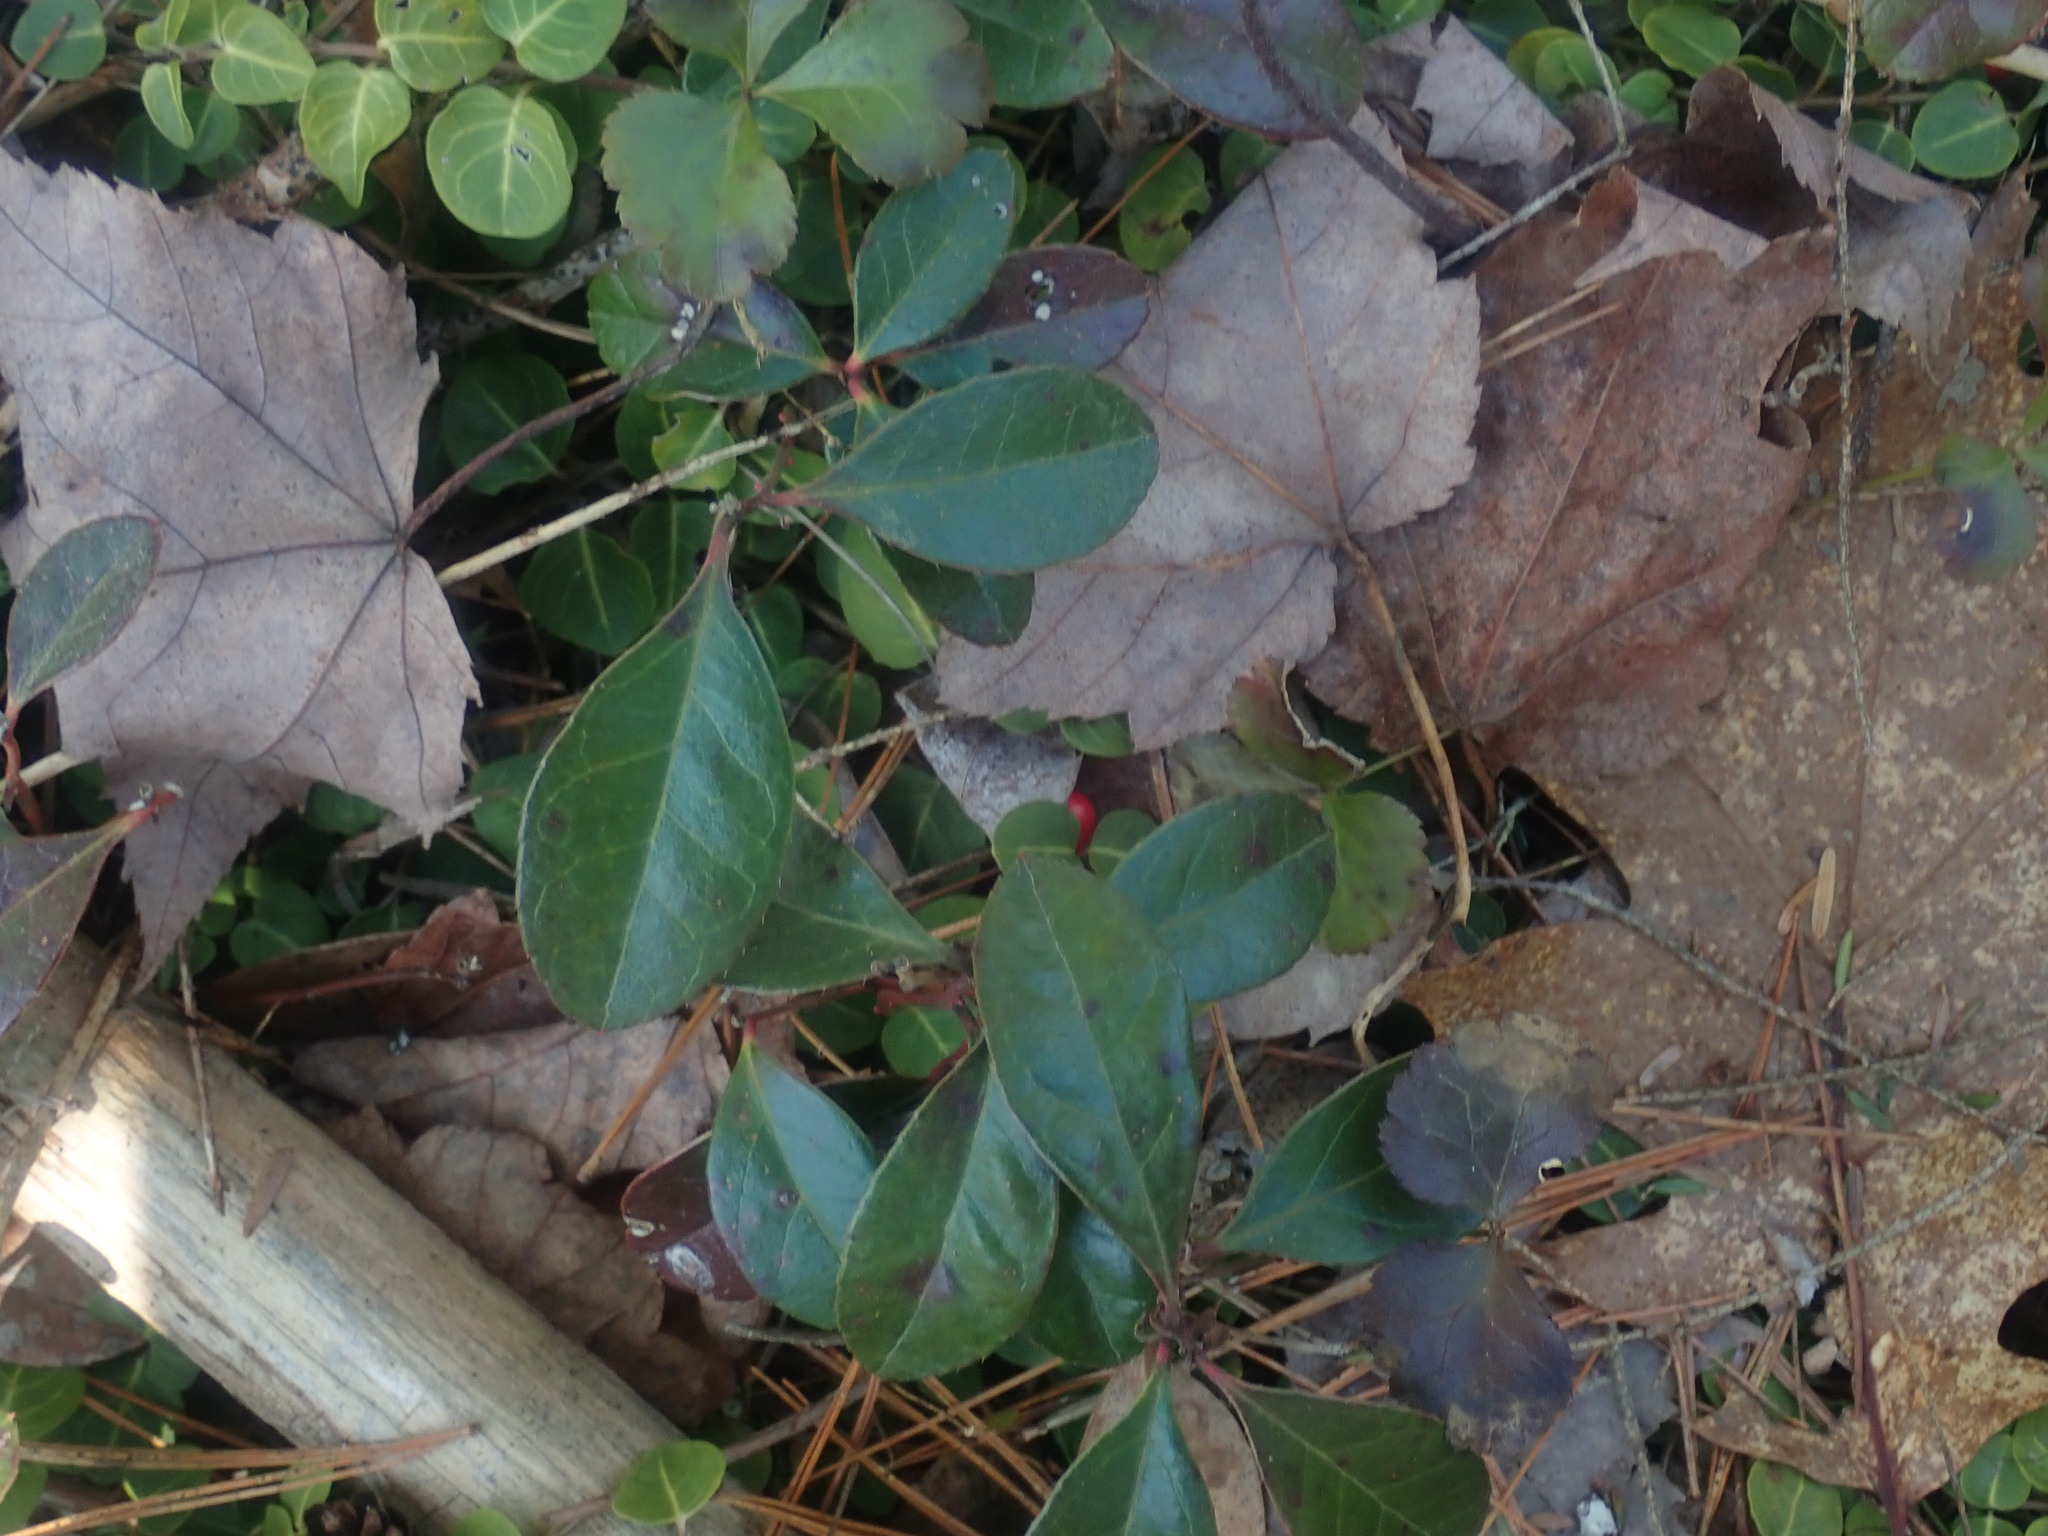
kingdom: Plantae
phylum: Tracheophyta
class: Magnoliopsida
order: Ericales
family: Ericaceae
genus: Gaultheria
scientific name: Gaultheria procumbens
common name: Checkerberry
